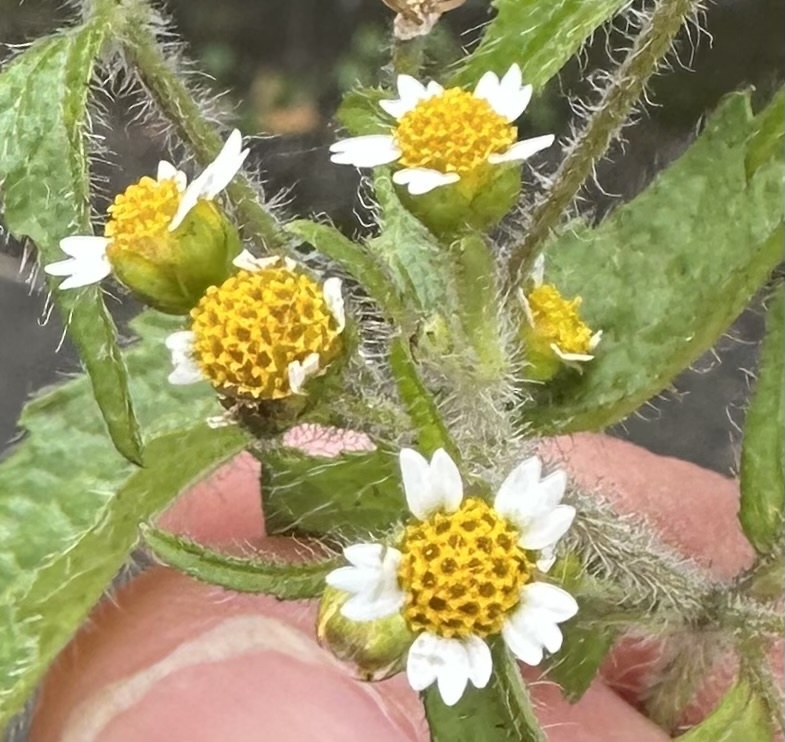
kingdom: Plantae
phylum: Tracheophyta
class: Magnoliopsida
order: Asterales
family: Asteraceae
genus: Galinsoga
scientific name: Galinsoga quadriradiata
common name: Shaggy soldier
